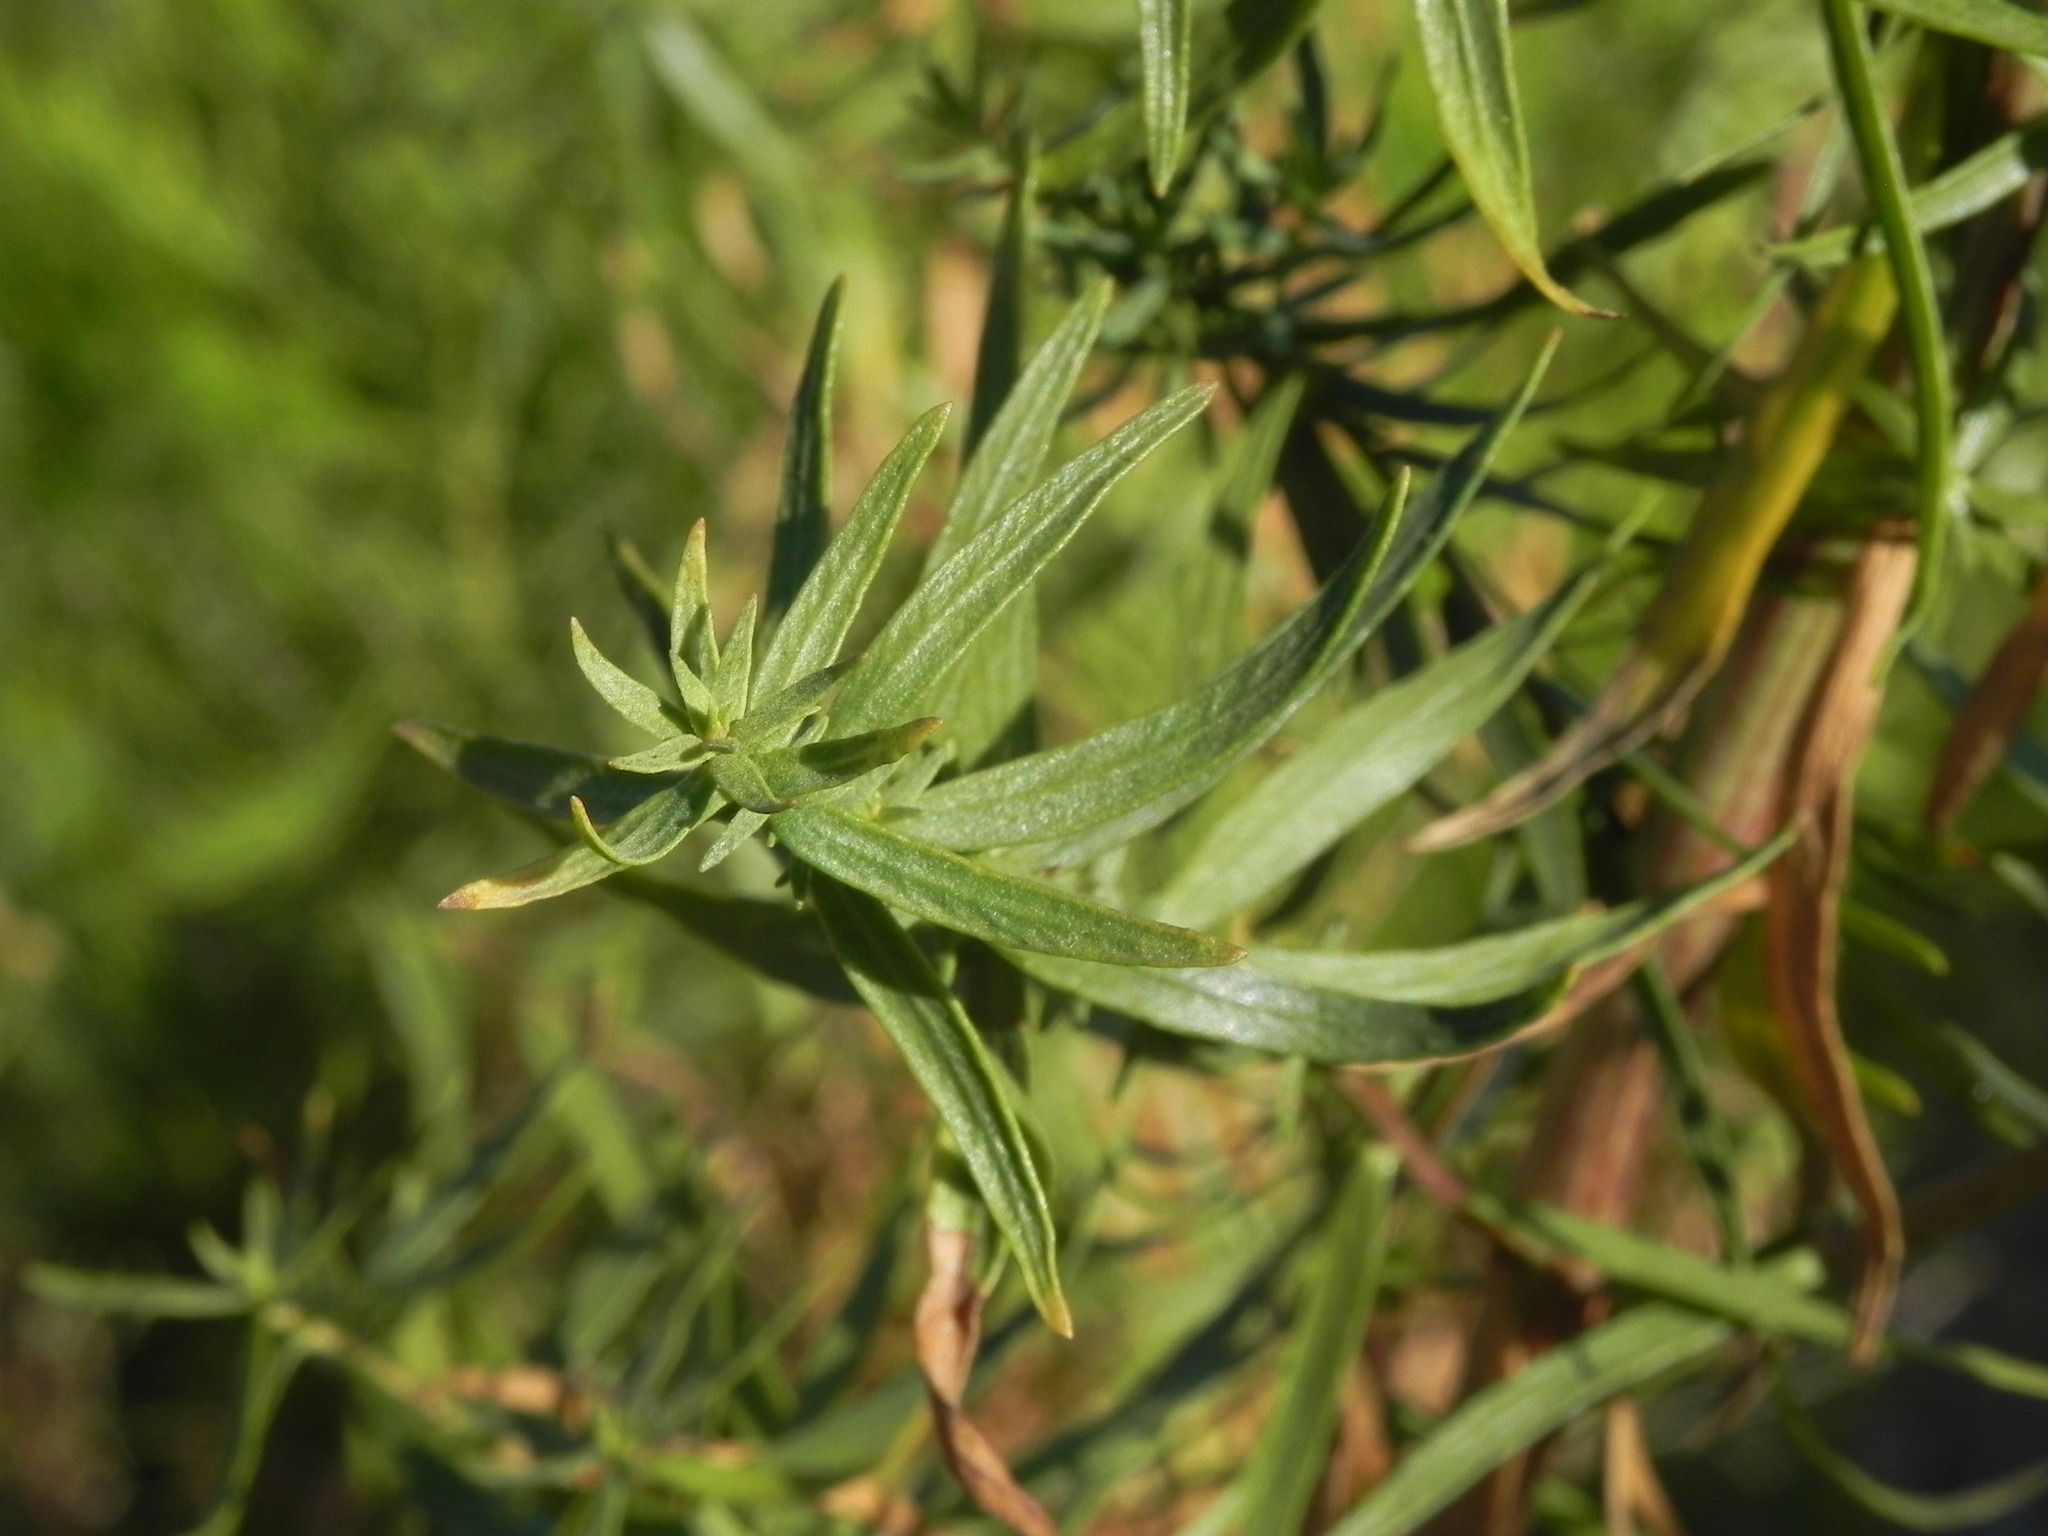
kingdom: Plantae
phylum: Tracheophyta
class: Magnoliopsida
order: Asterales
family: Asteraceae
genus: Artemisia
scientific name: Artemisia dracunculus
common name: Tarragon
